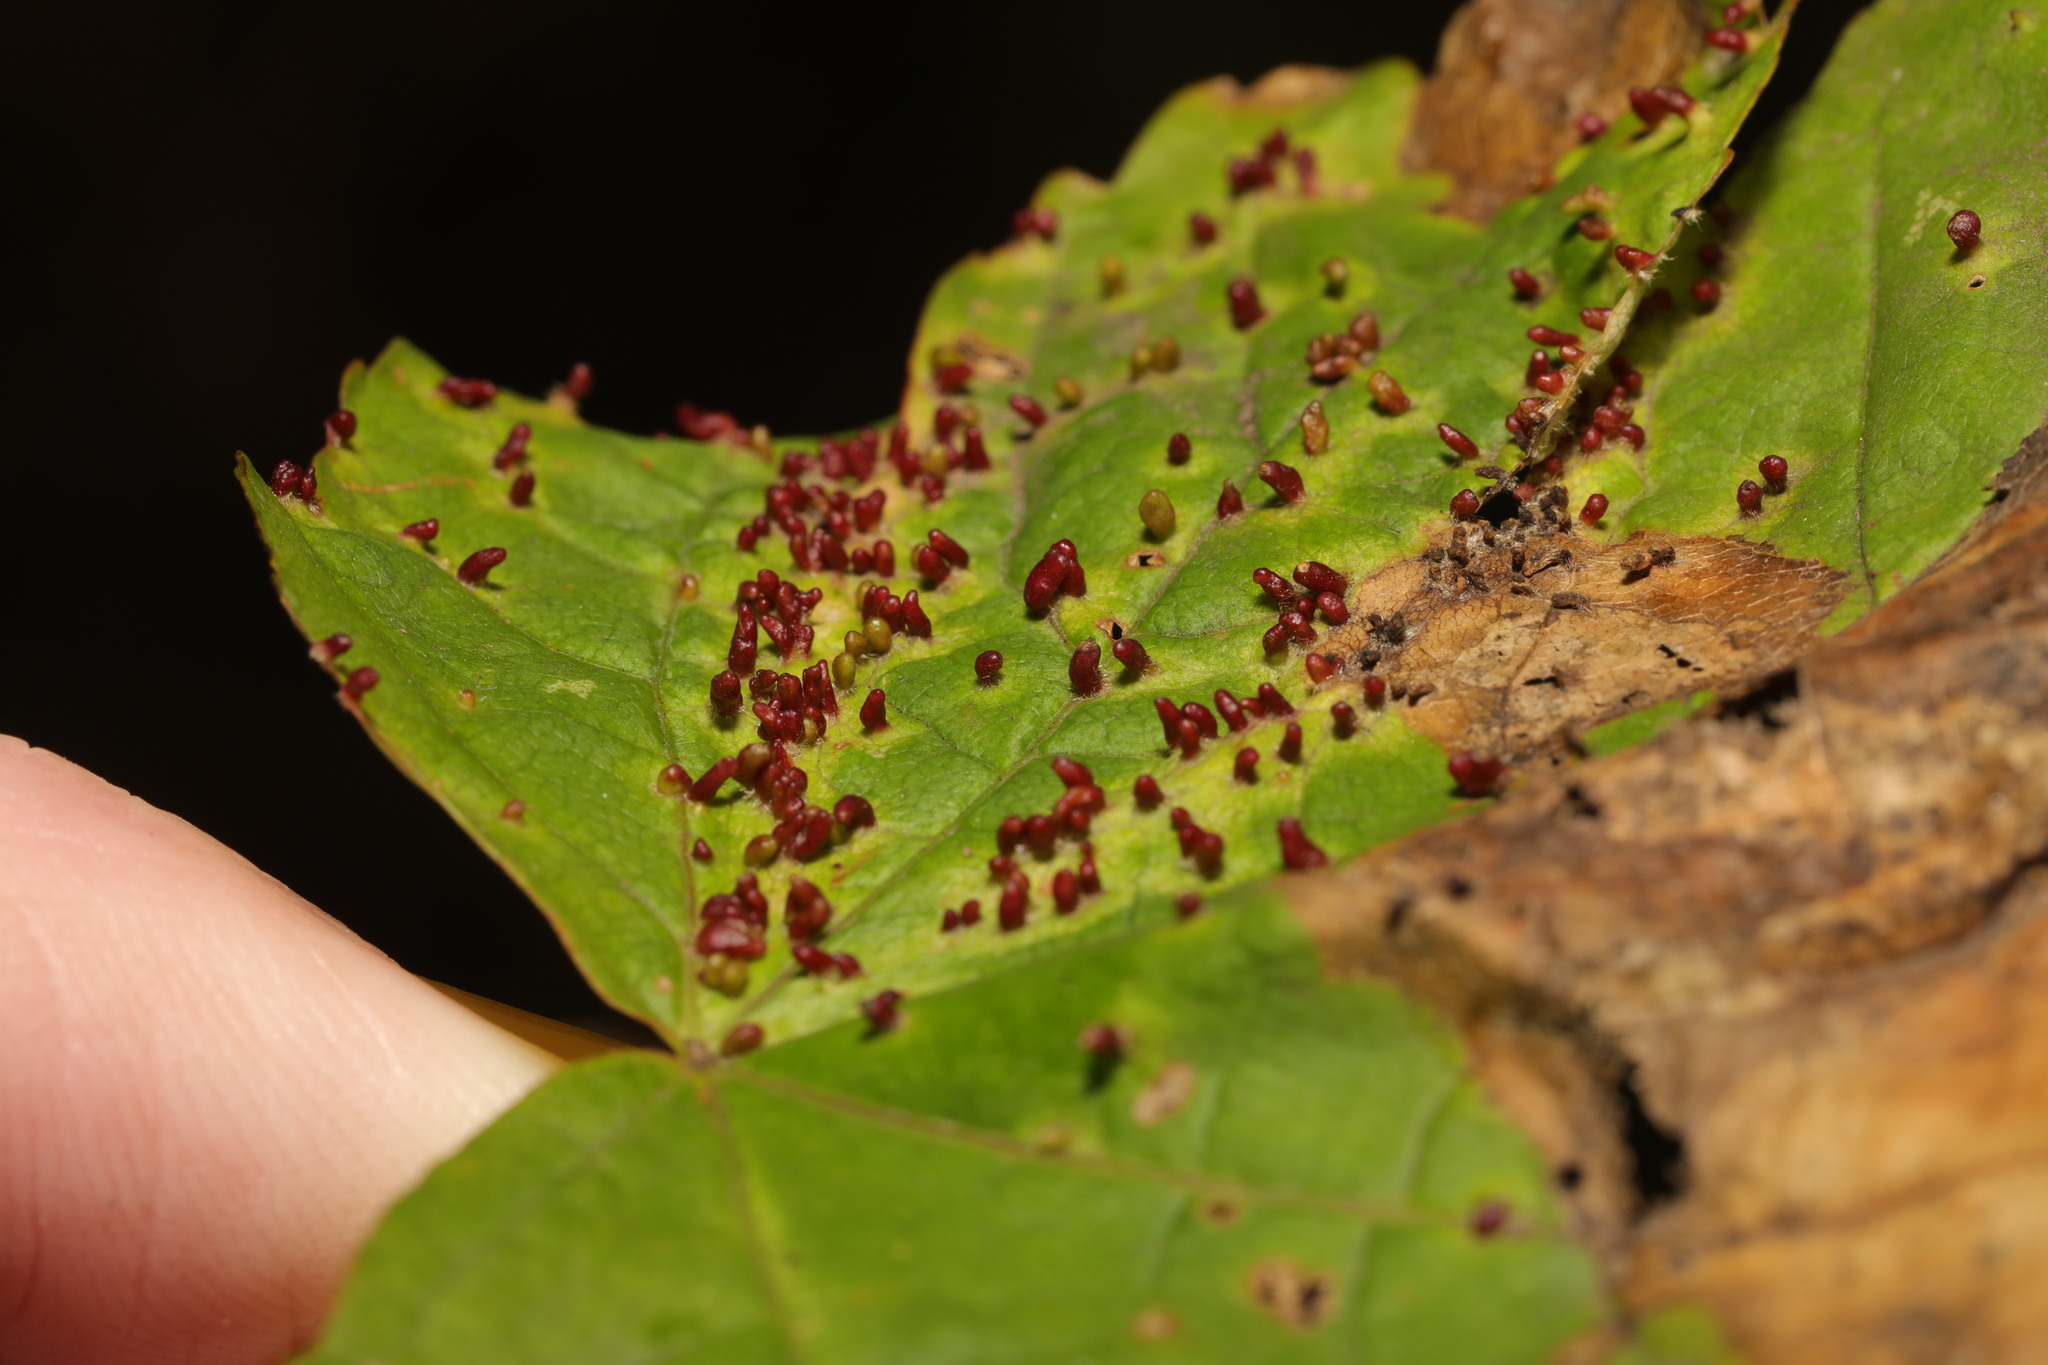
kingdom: Animalia
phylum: Arthropoda
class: Arachnida
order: Trombidiformes
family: Eriophyidae
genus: Aceria
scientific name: Aceria cephaloneus
